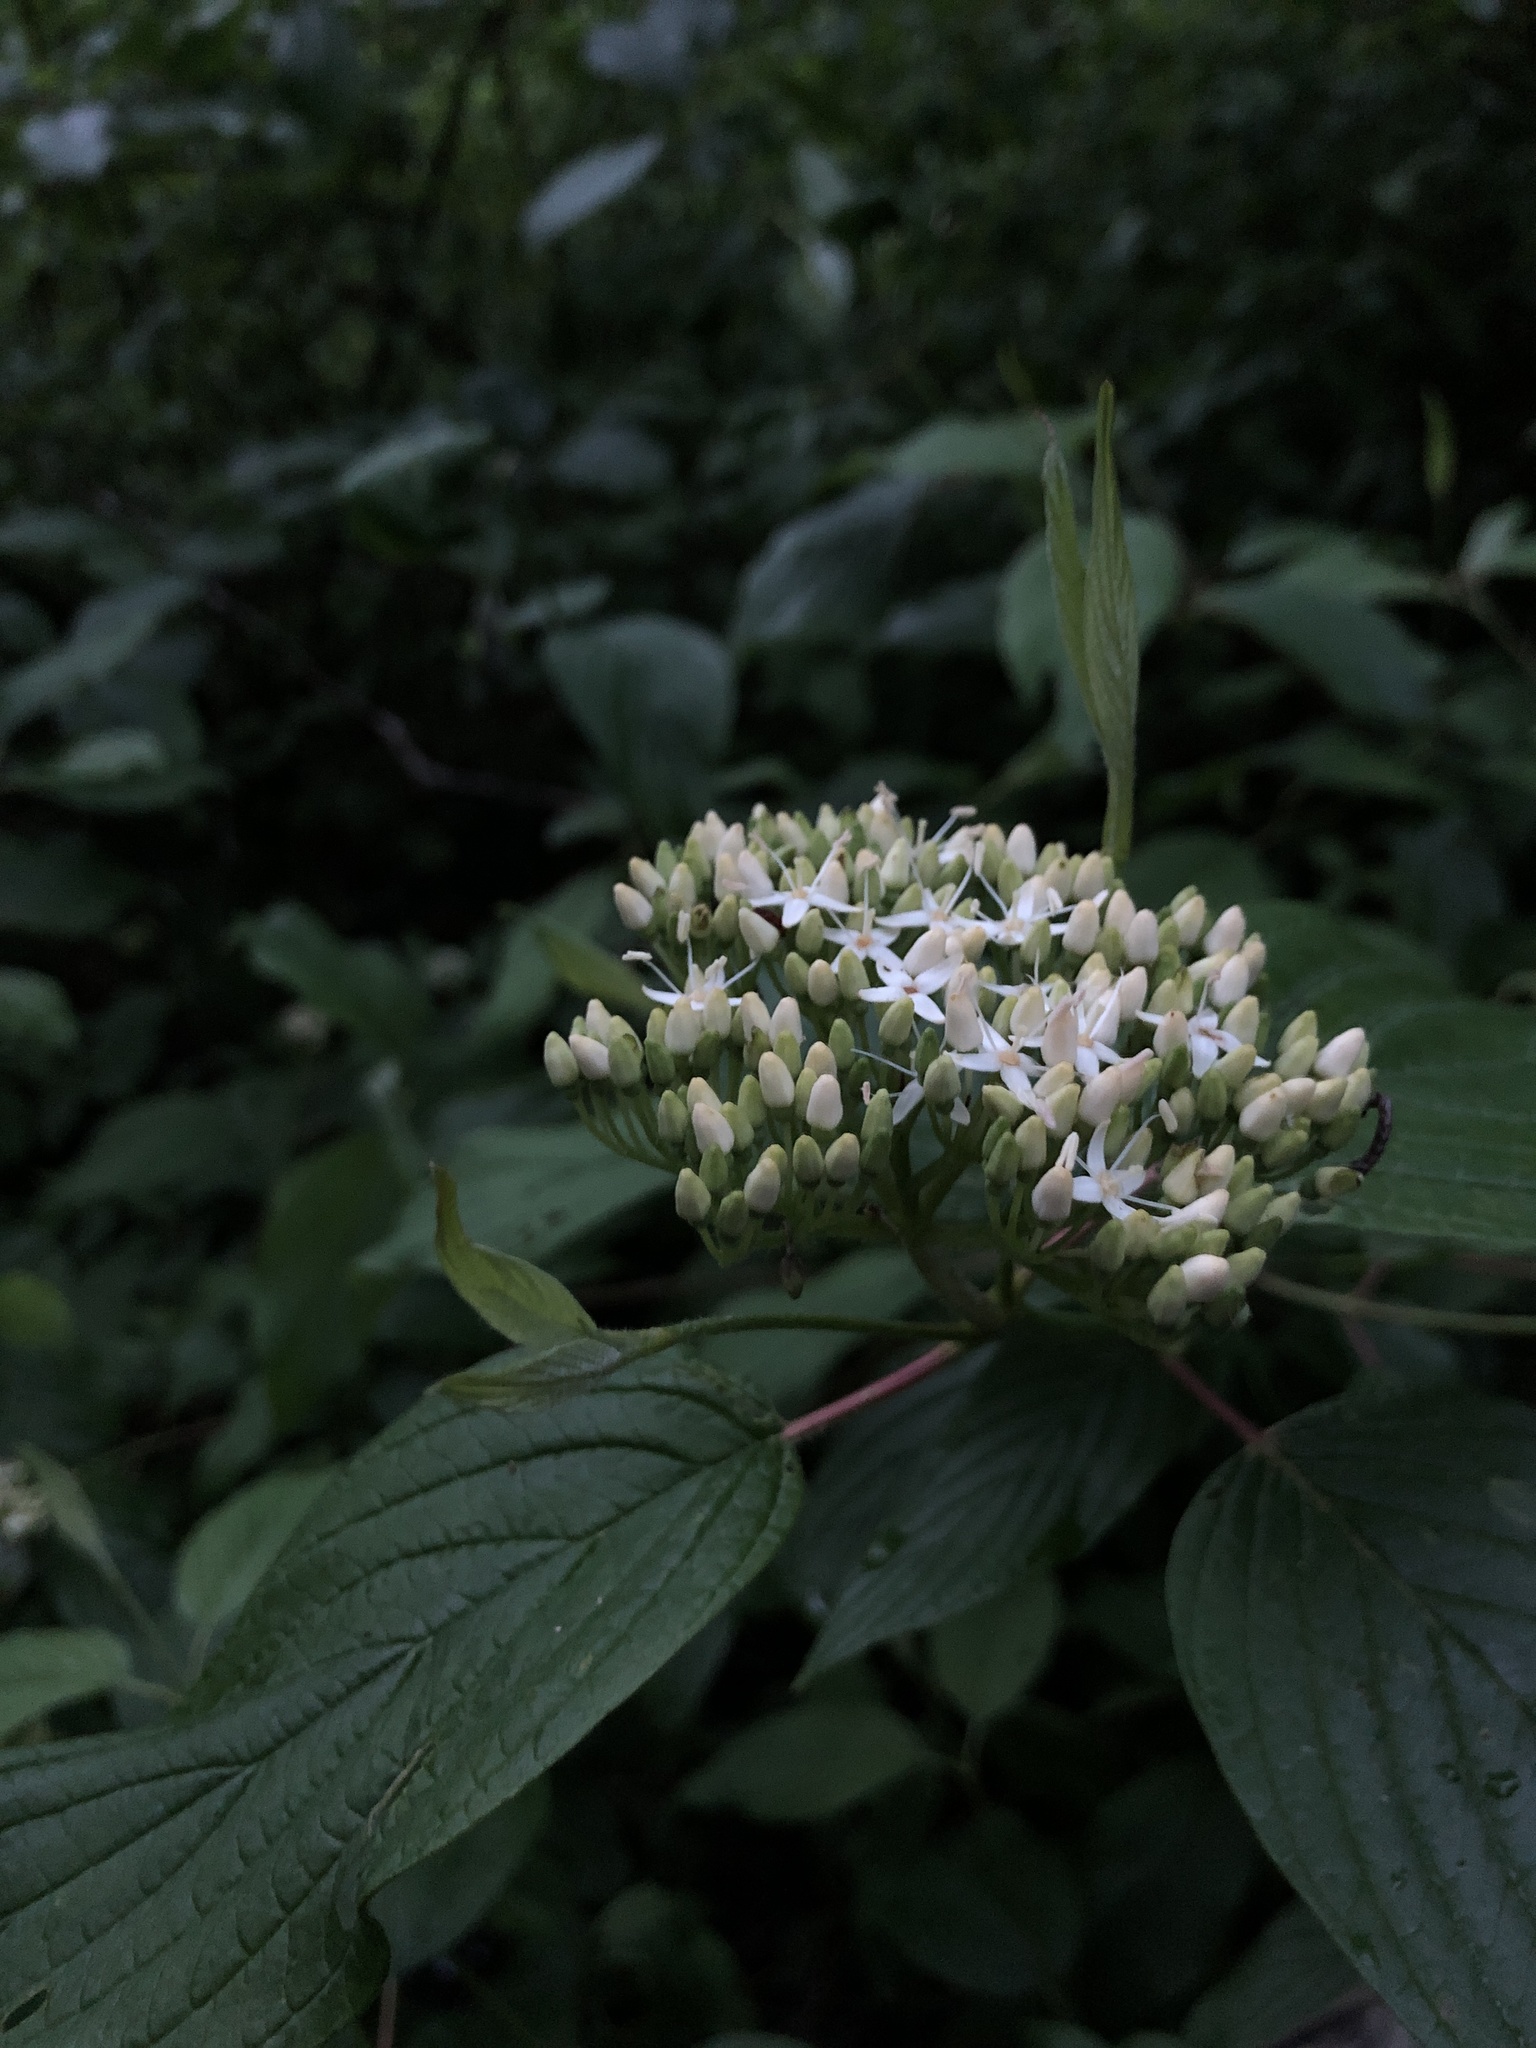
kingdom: Plantae
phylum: Tracheophyta
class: Magnoliopsida
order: Cornales
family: Cornaceae
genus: Cornus
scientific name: Cornus sericea
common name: Red-osier dogwood
